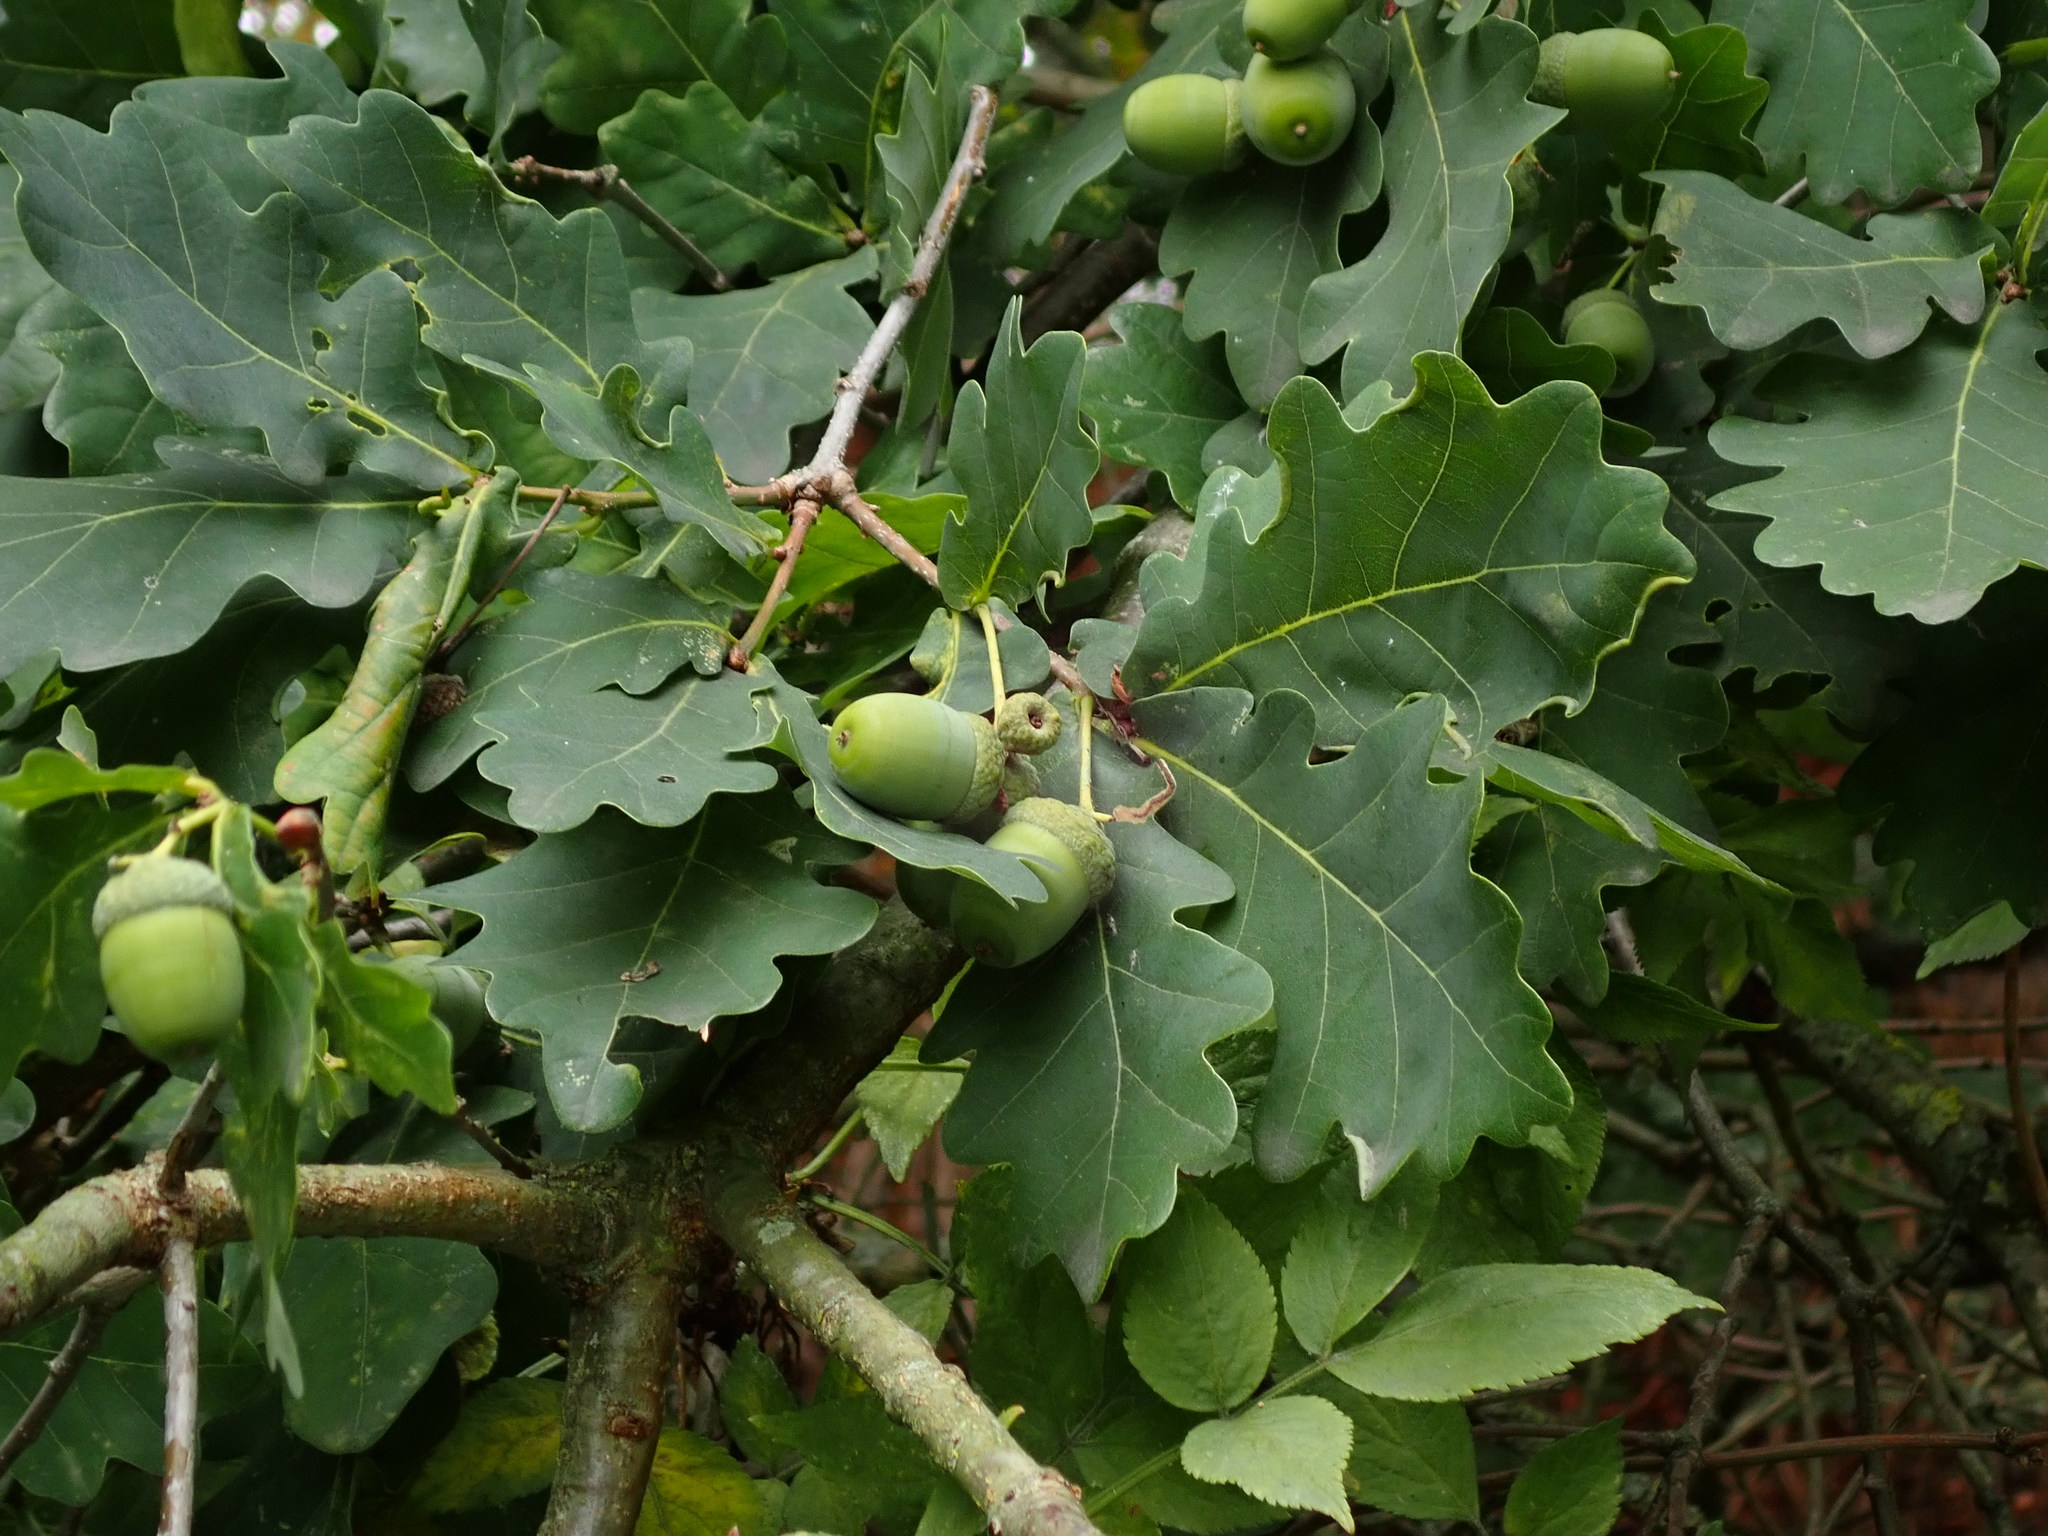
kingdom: Plantae
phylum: Tracheophyta
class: Magnoliopsida
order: Fagales
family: Fagaceae
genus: Quercus
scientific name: Quercus robur
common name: Pedunculate oak
